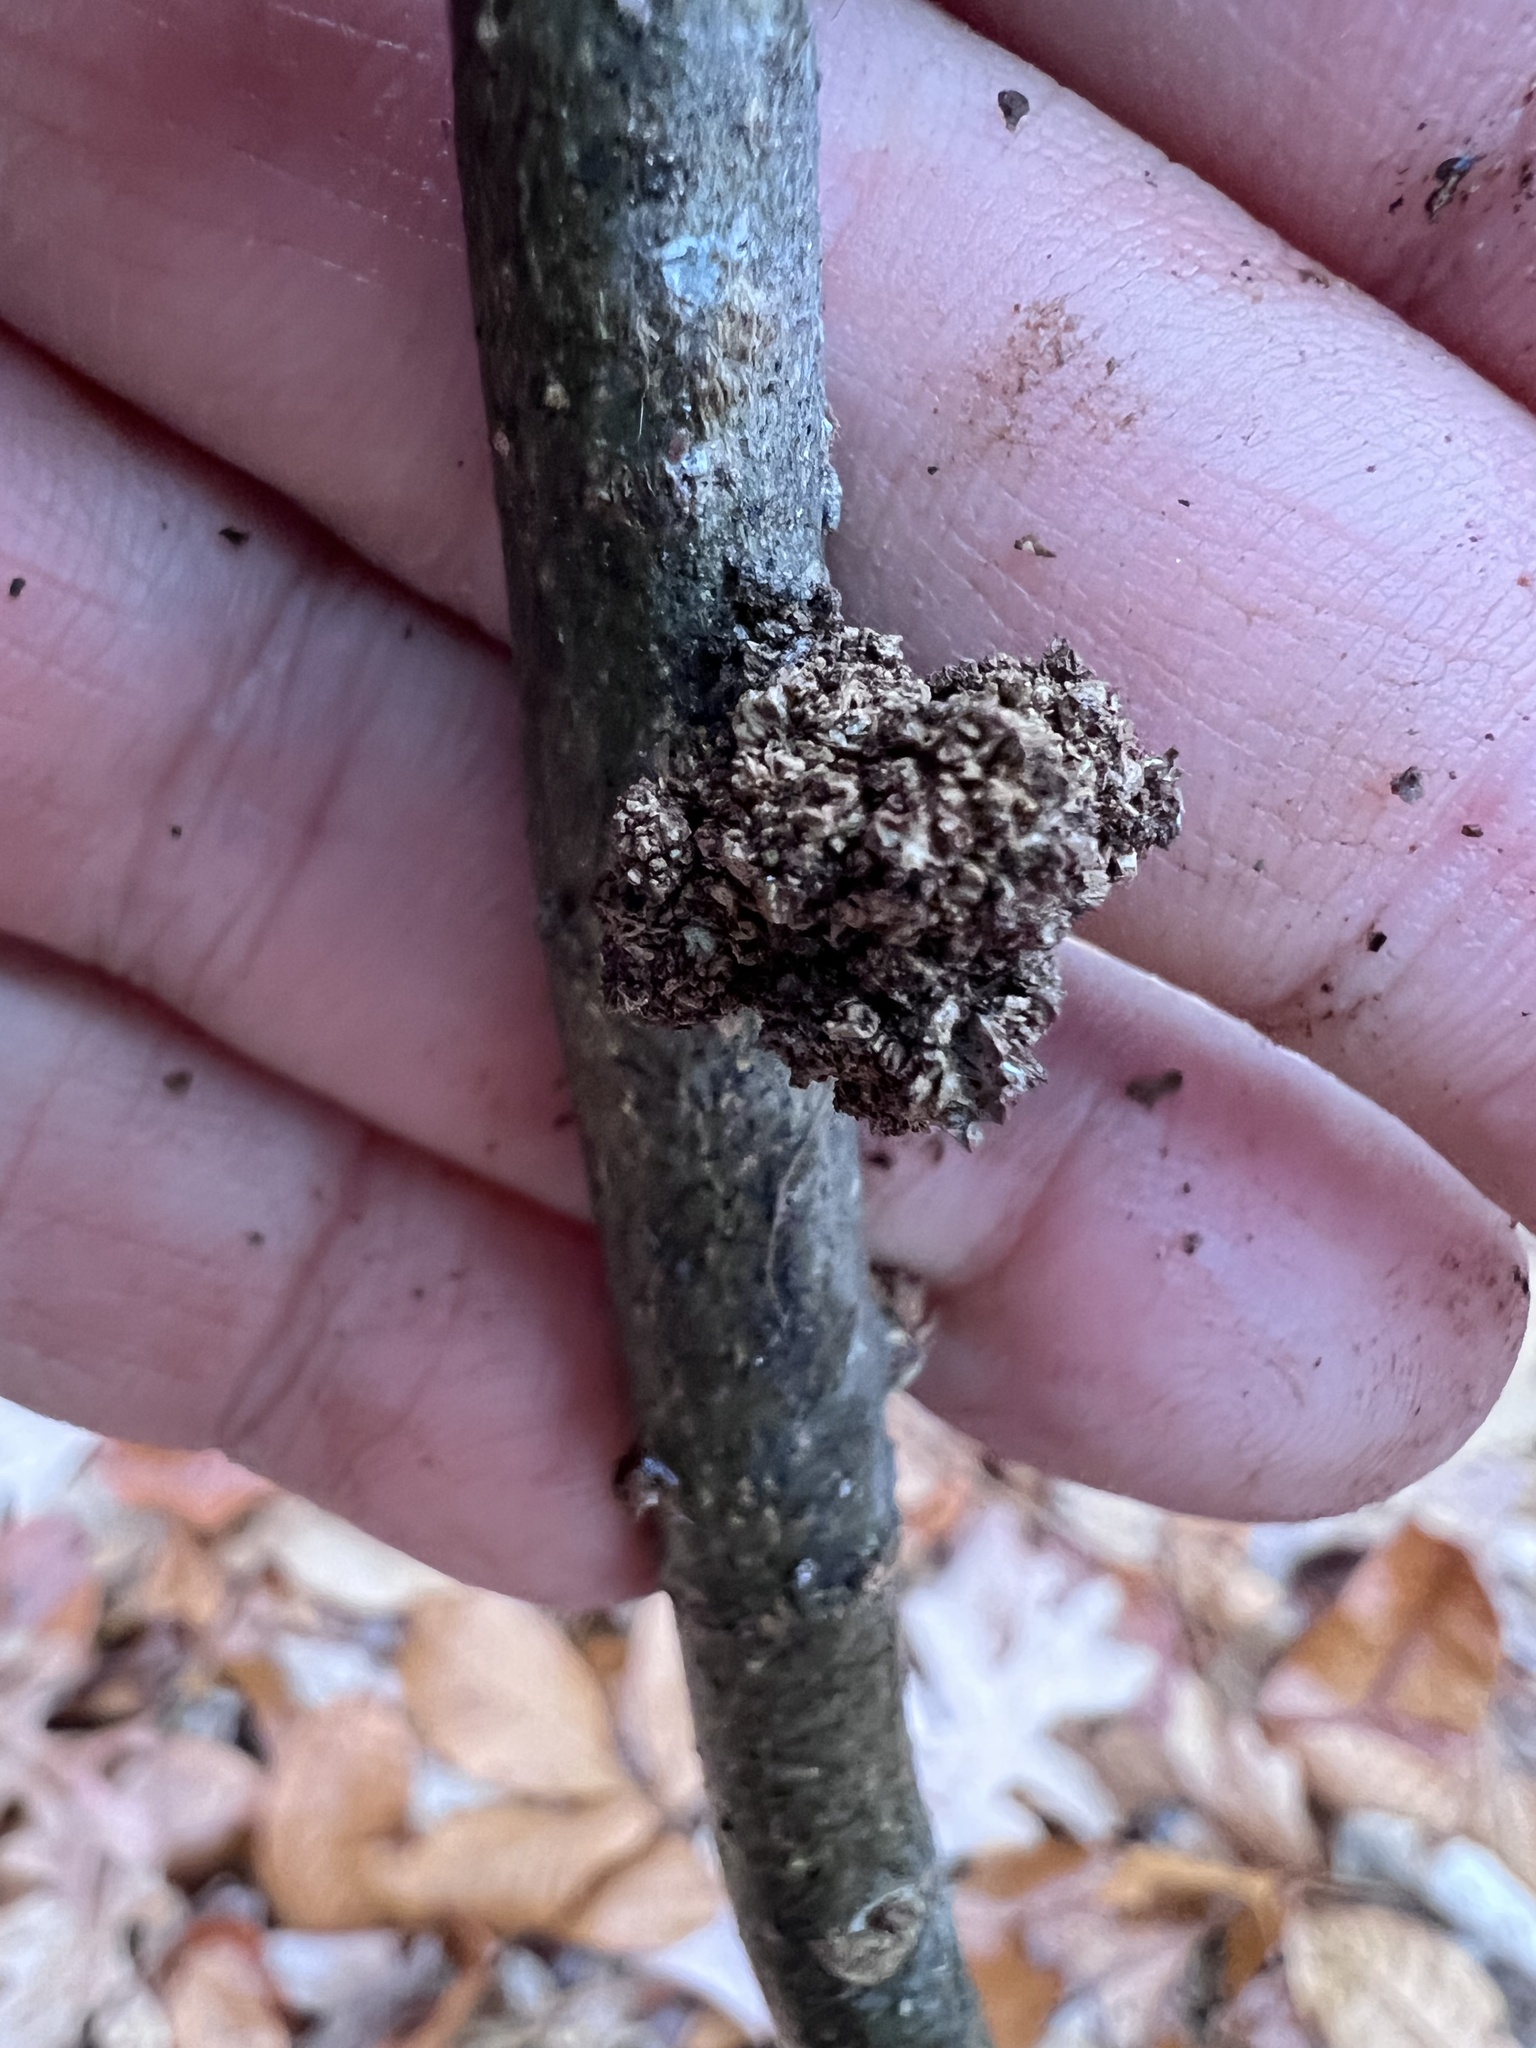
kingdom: Animalia
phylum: Arthropoda
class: Arachnida
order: Trombidiformes
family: Eriophyidae
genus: Aceria
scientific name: Aceria fraxiniflora
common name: Ash flower gall mite
